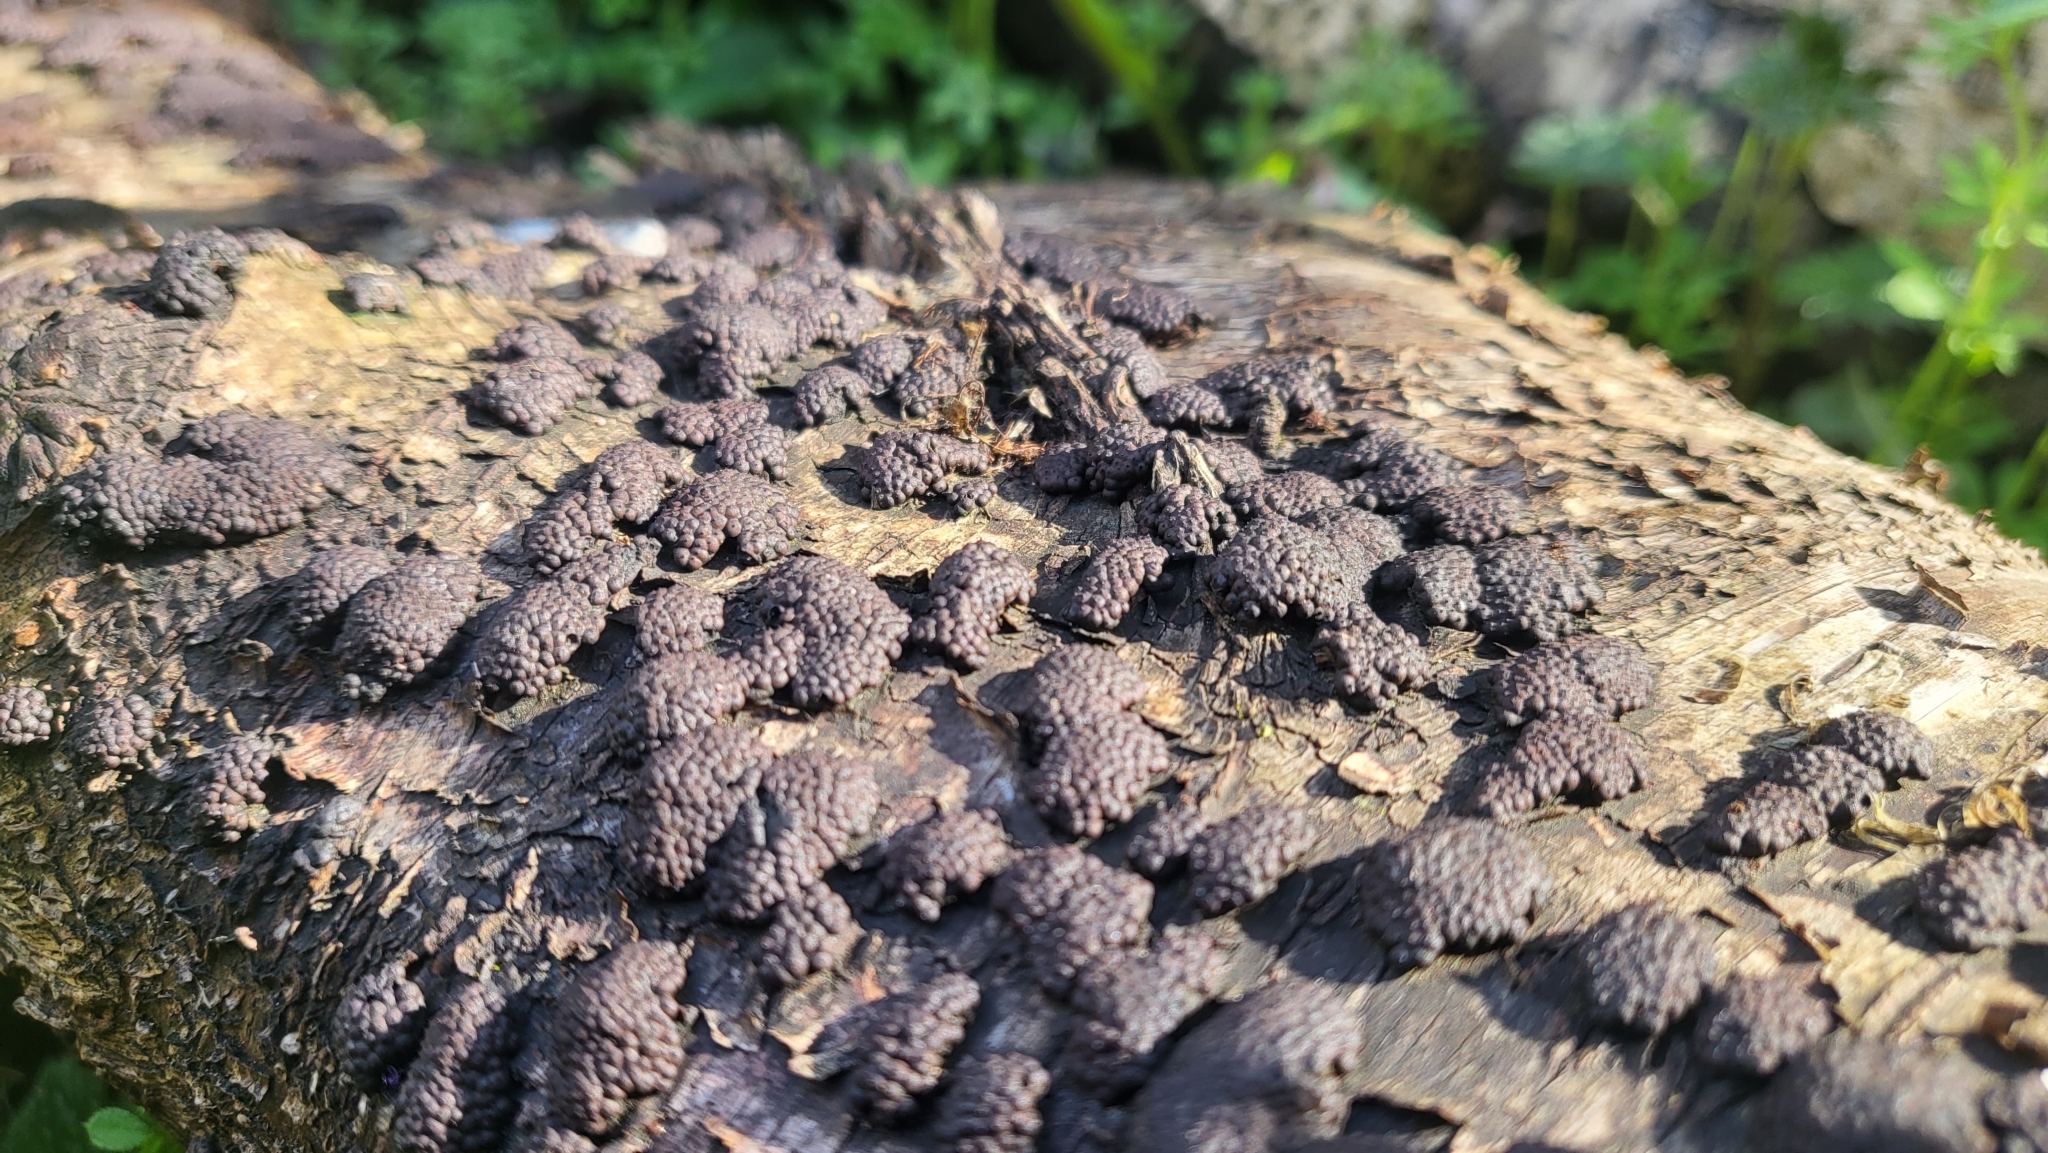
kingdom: Fungi
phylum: Ascomycota
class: Sordariomycetes
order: Xylariales
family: Hypoxylaceae
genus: Jackrogersella
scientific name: Jackrogersella multiformis
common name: Birch woodwart
